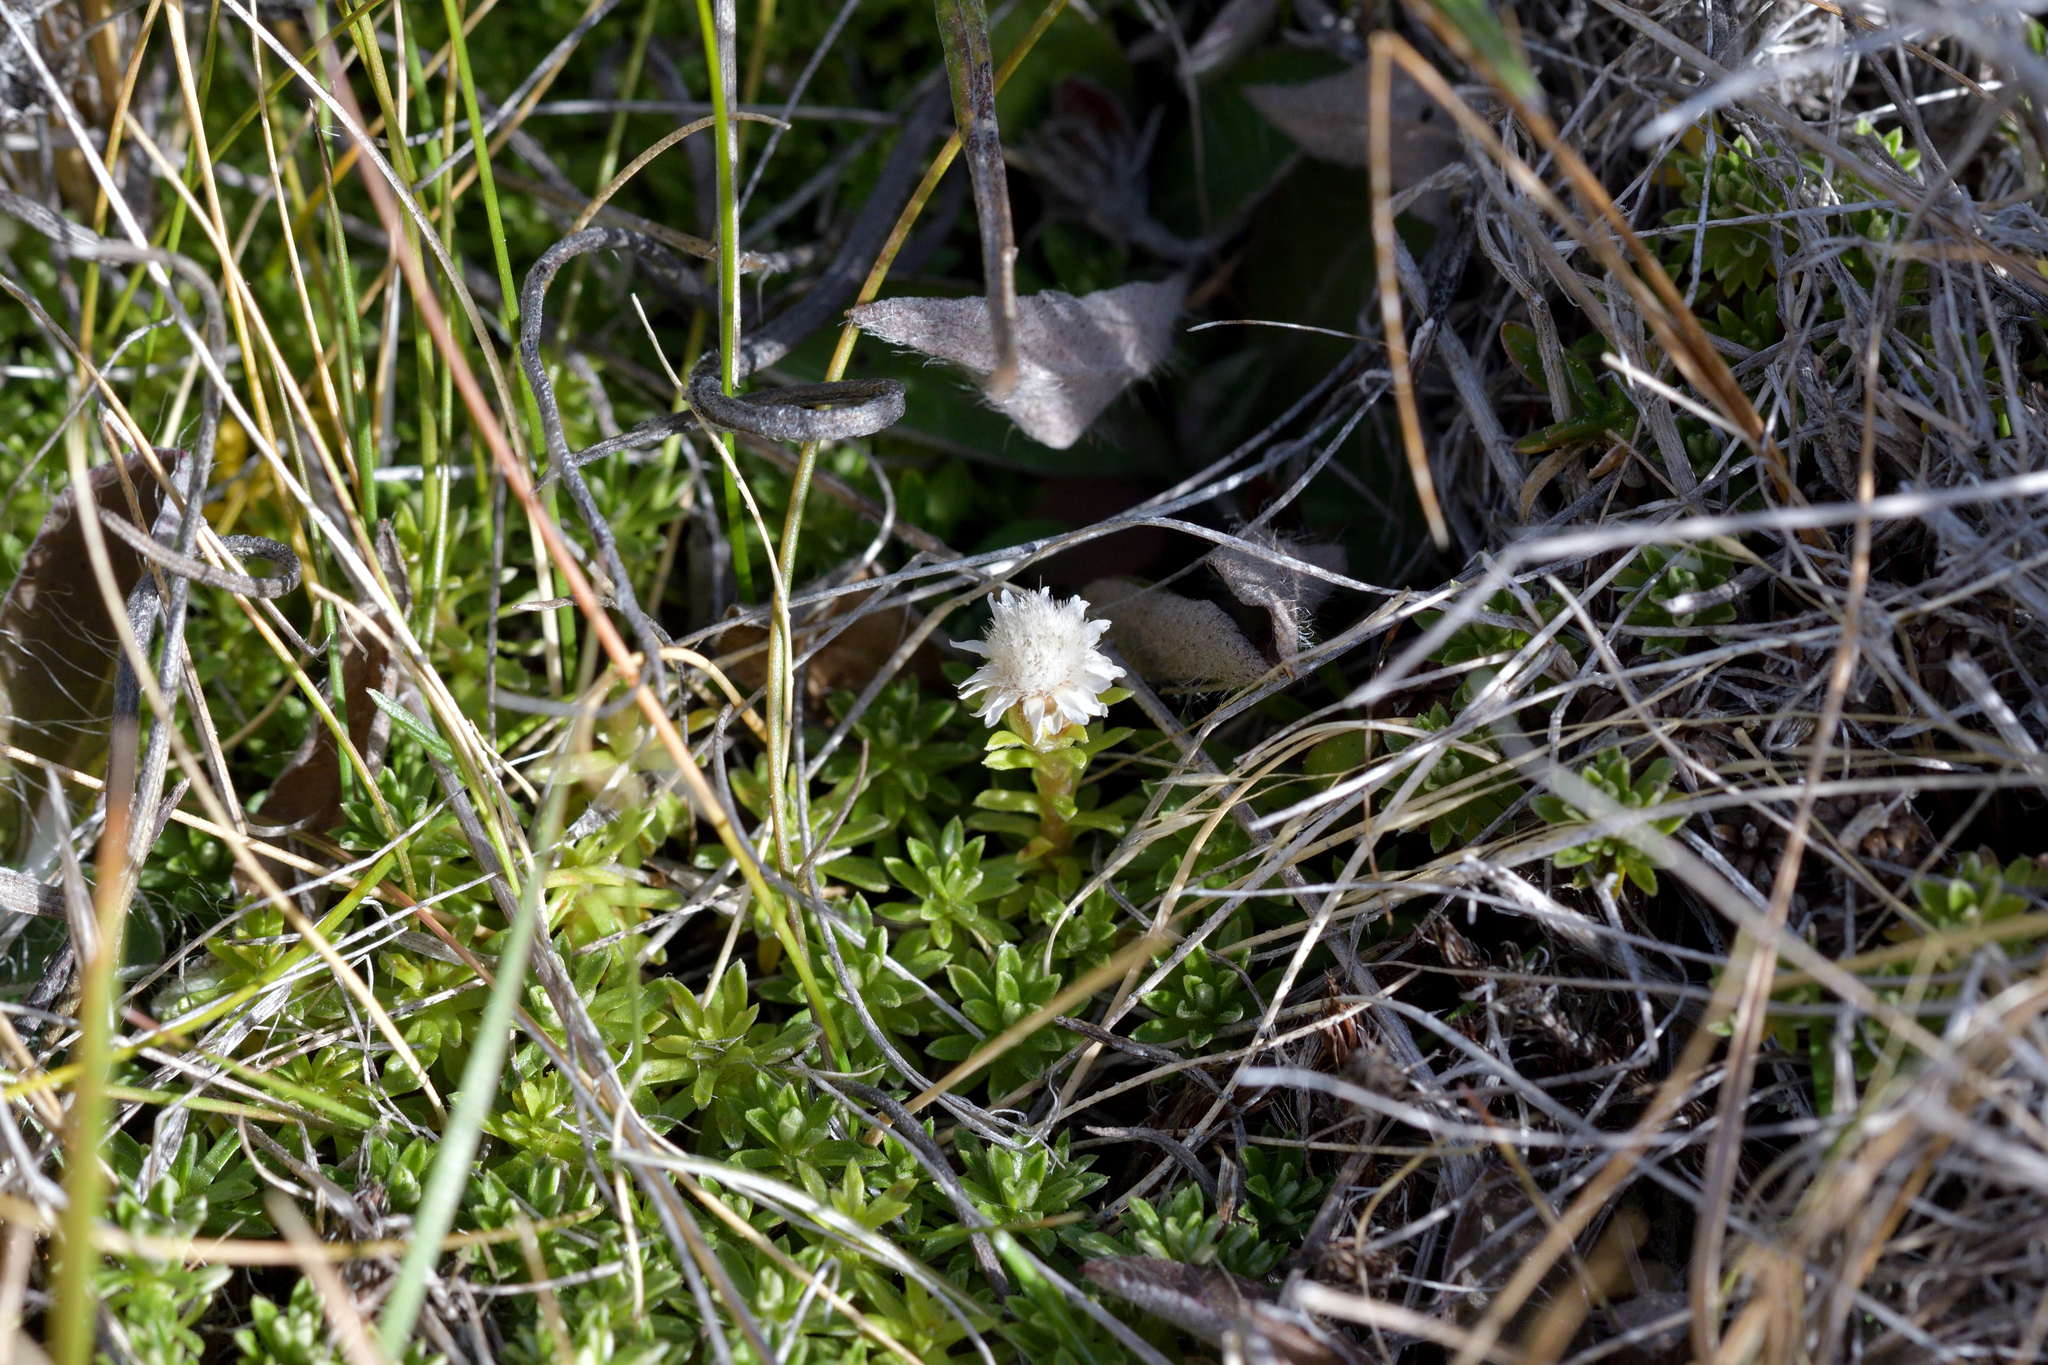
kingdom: Plantae
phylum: Tracheophyta
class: Magnoliopsida
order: Asterales
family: Asteraceae
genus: Raoulia
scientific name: Raoulia glabra
